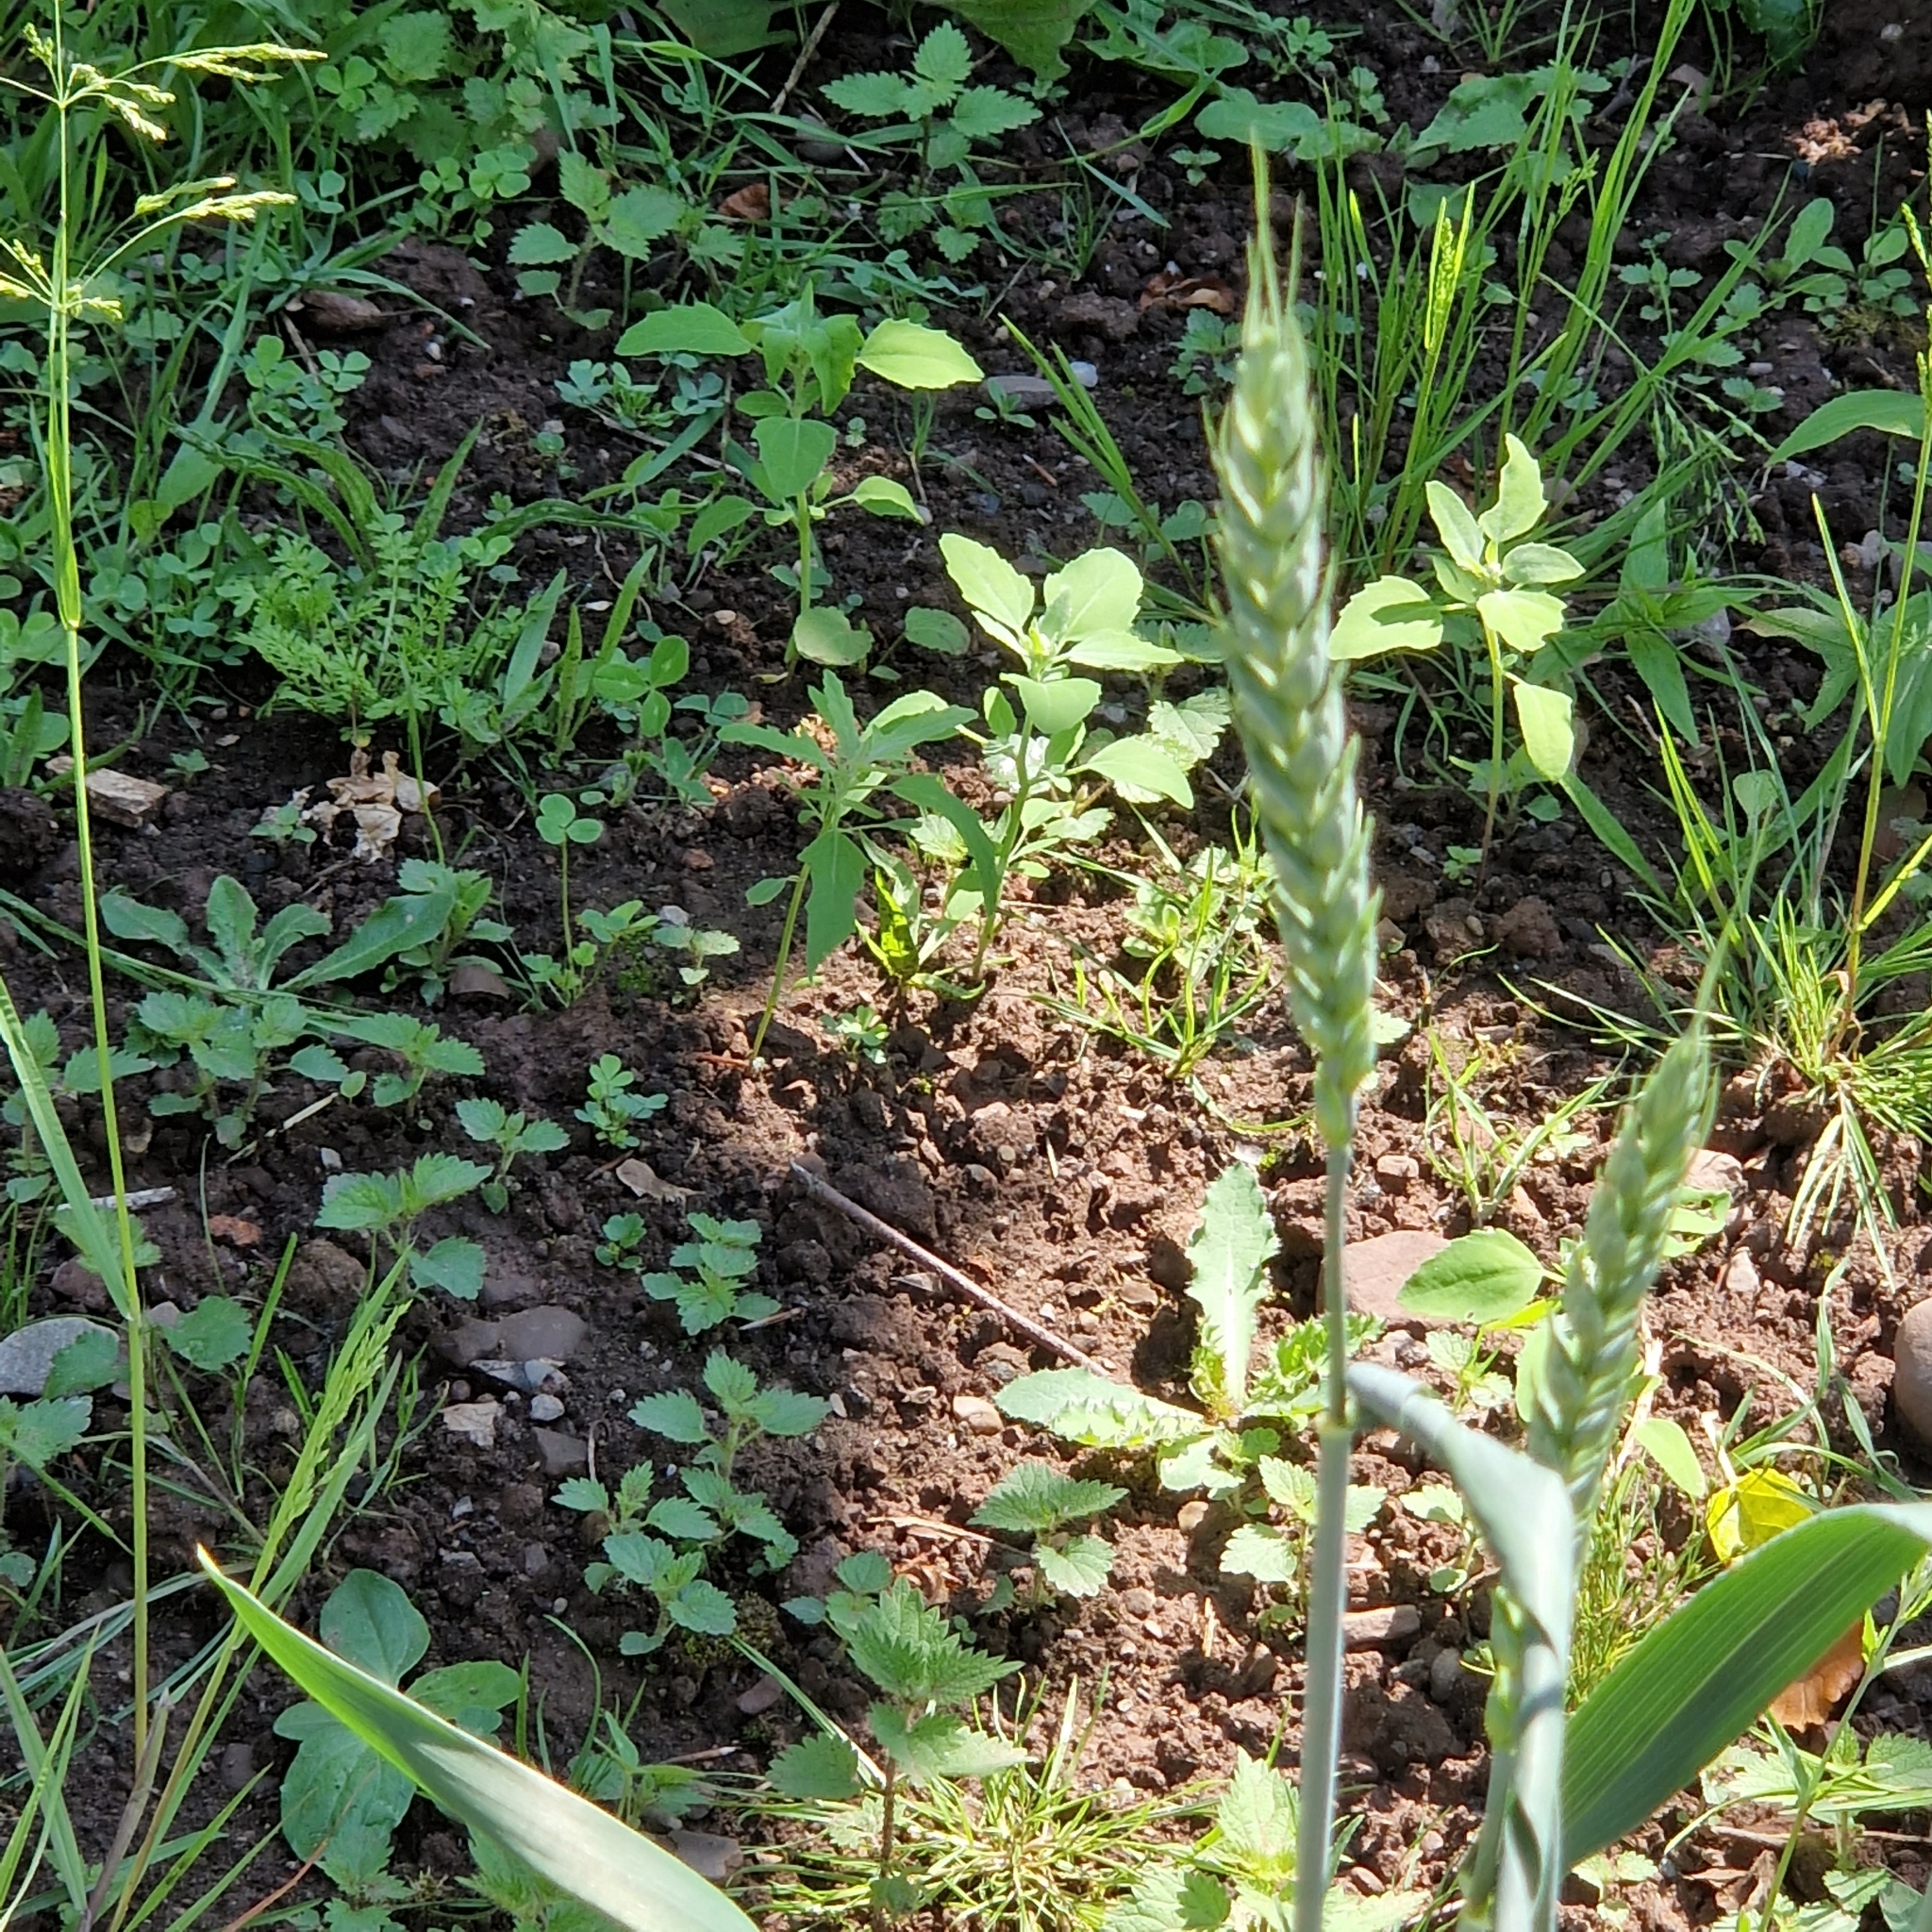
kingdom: Plantae
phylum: Tracheophyta
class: Liliopsida
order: Poales
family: Poaceae
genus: Triticum
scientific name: Triticum aestivum
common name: Common wheat
